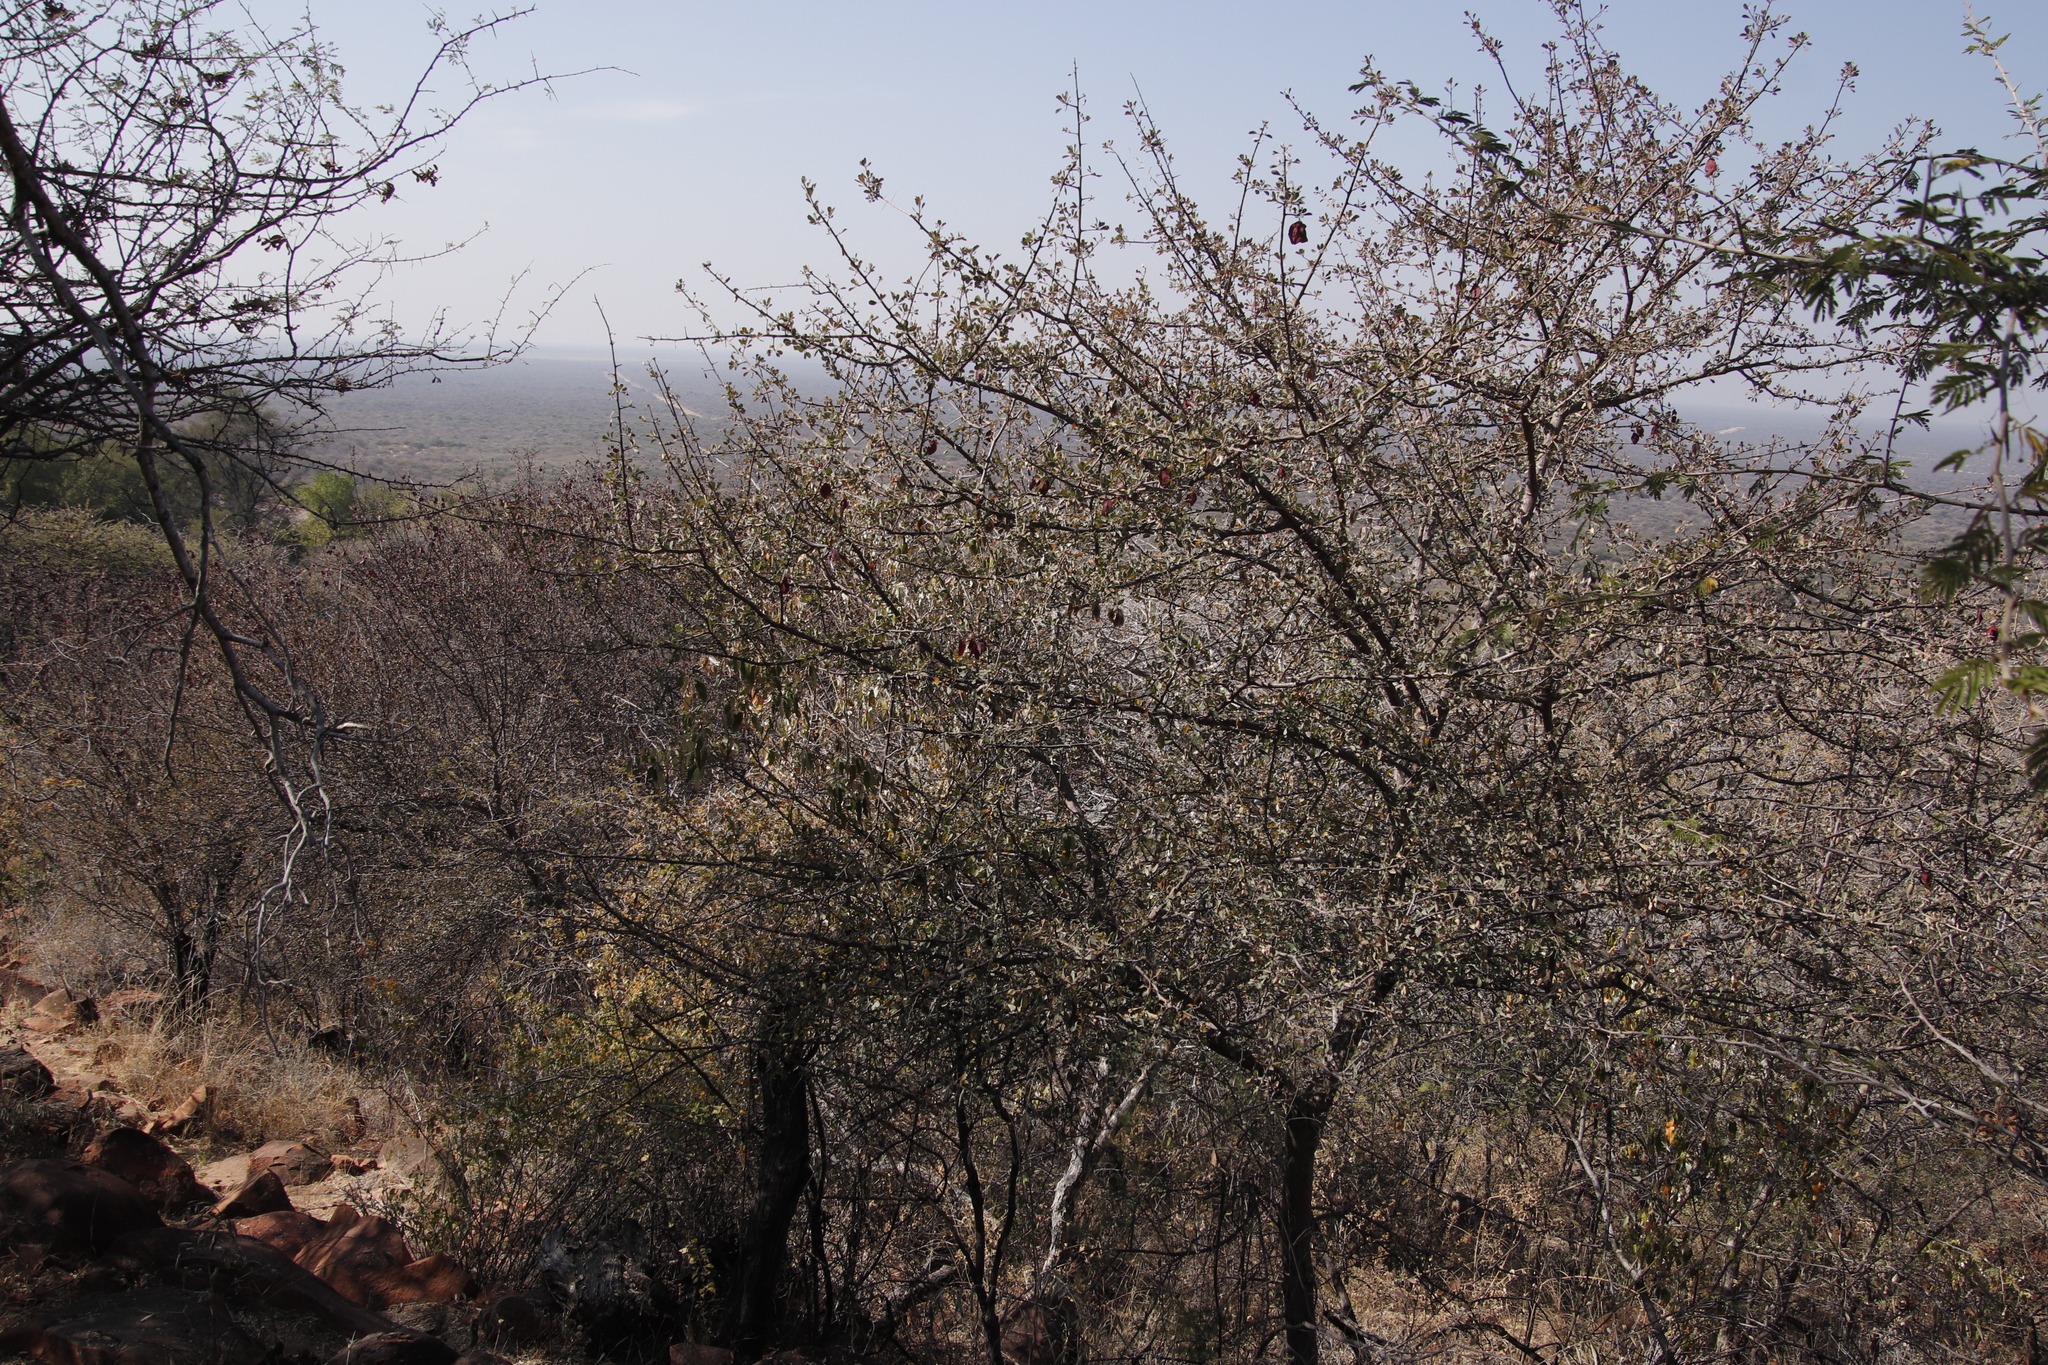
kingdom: Plantae
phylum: Tracheophyta
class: Magnoliopsida
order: Myrtales
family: Combretaceae
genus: Terminalia
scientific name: Terminalia prunioides
